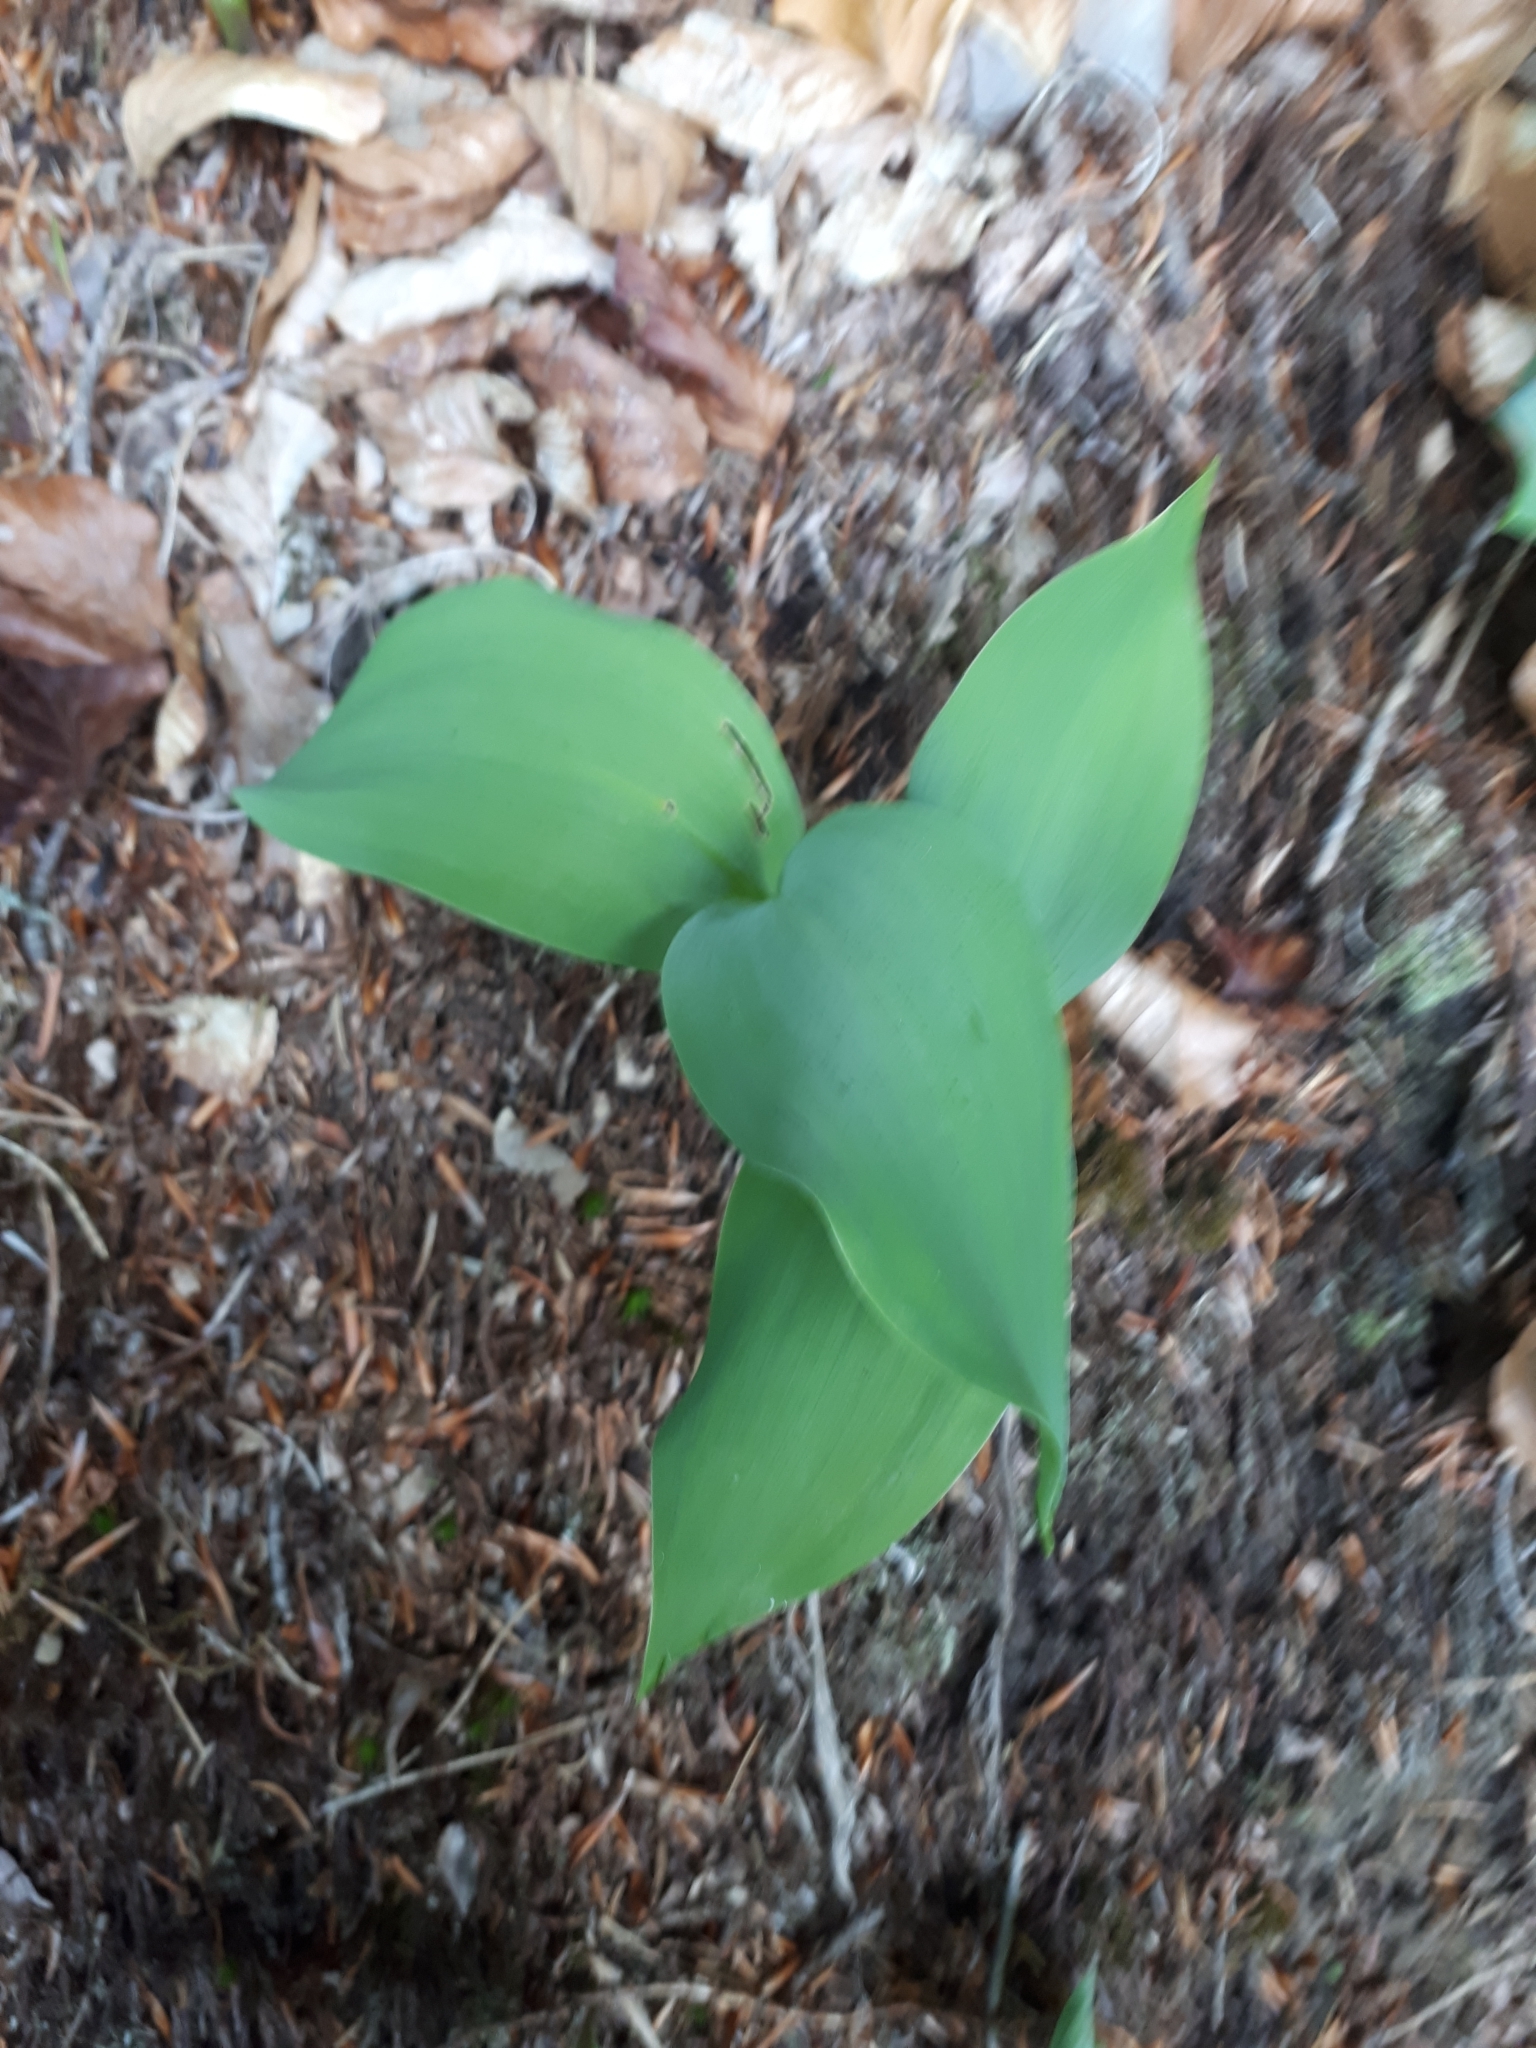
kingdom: Plantae
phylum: Tracheophyta
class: Liliopsida
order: Asparagales
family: Asparagaceae
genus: Convallaria
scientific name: Convallaria majalis
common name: Lily-of-the-valley
